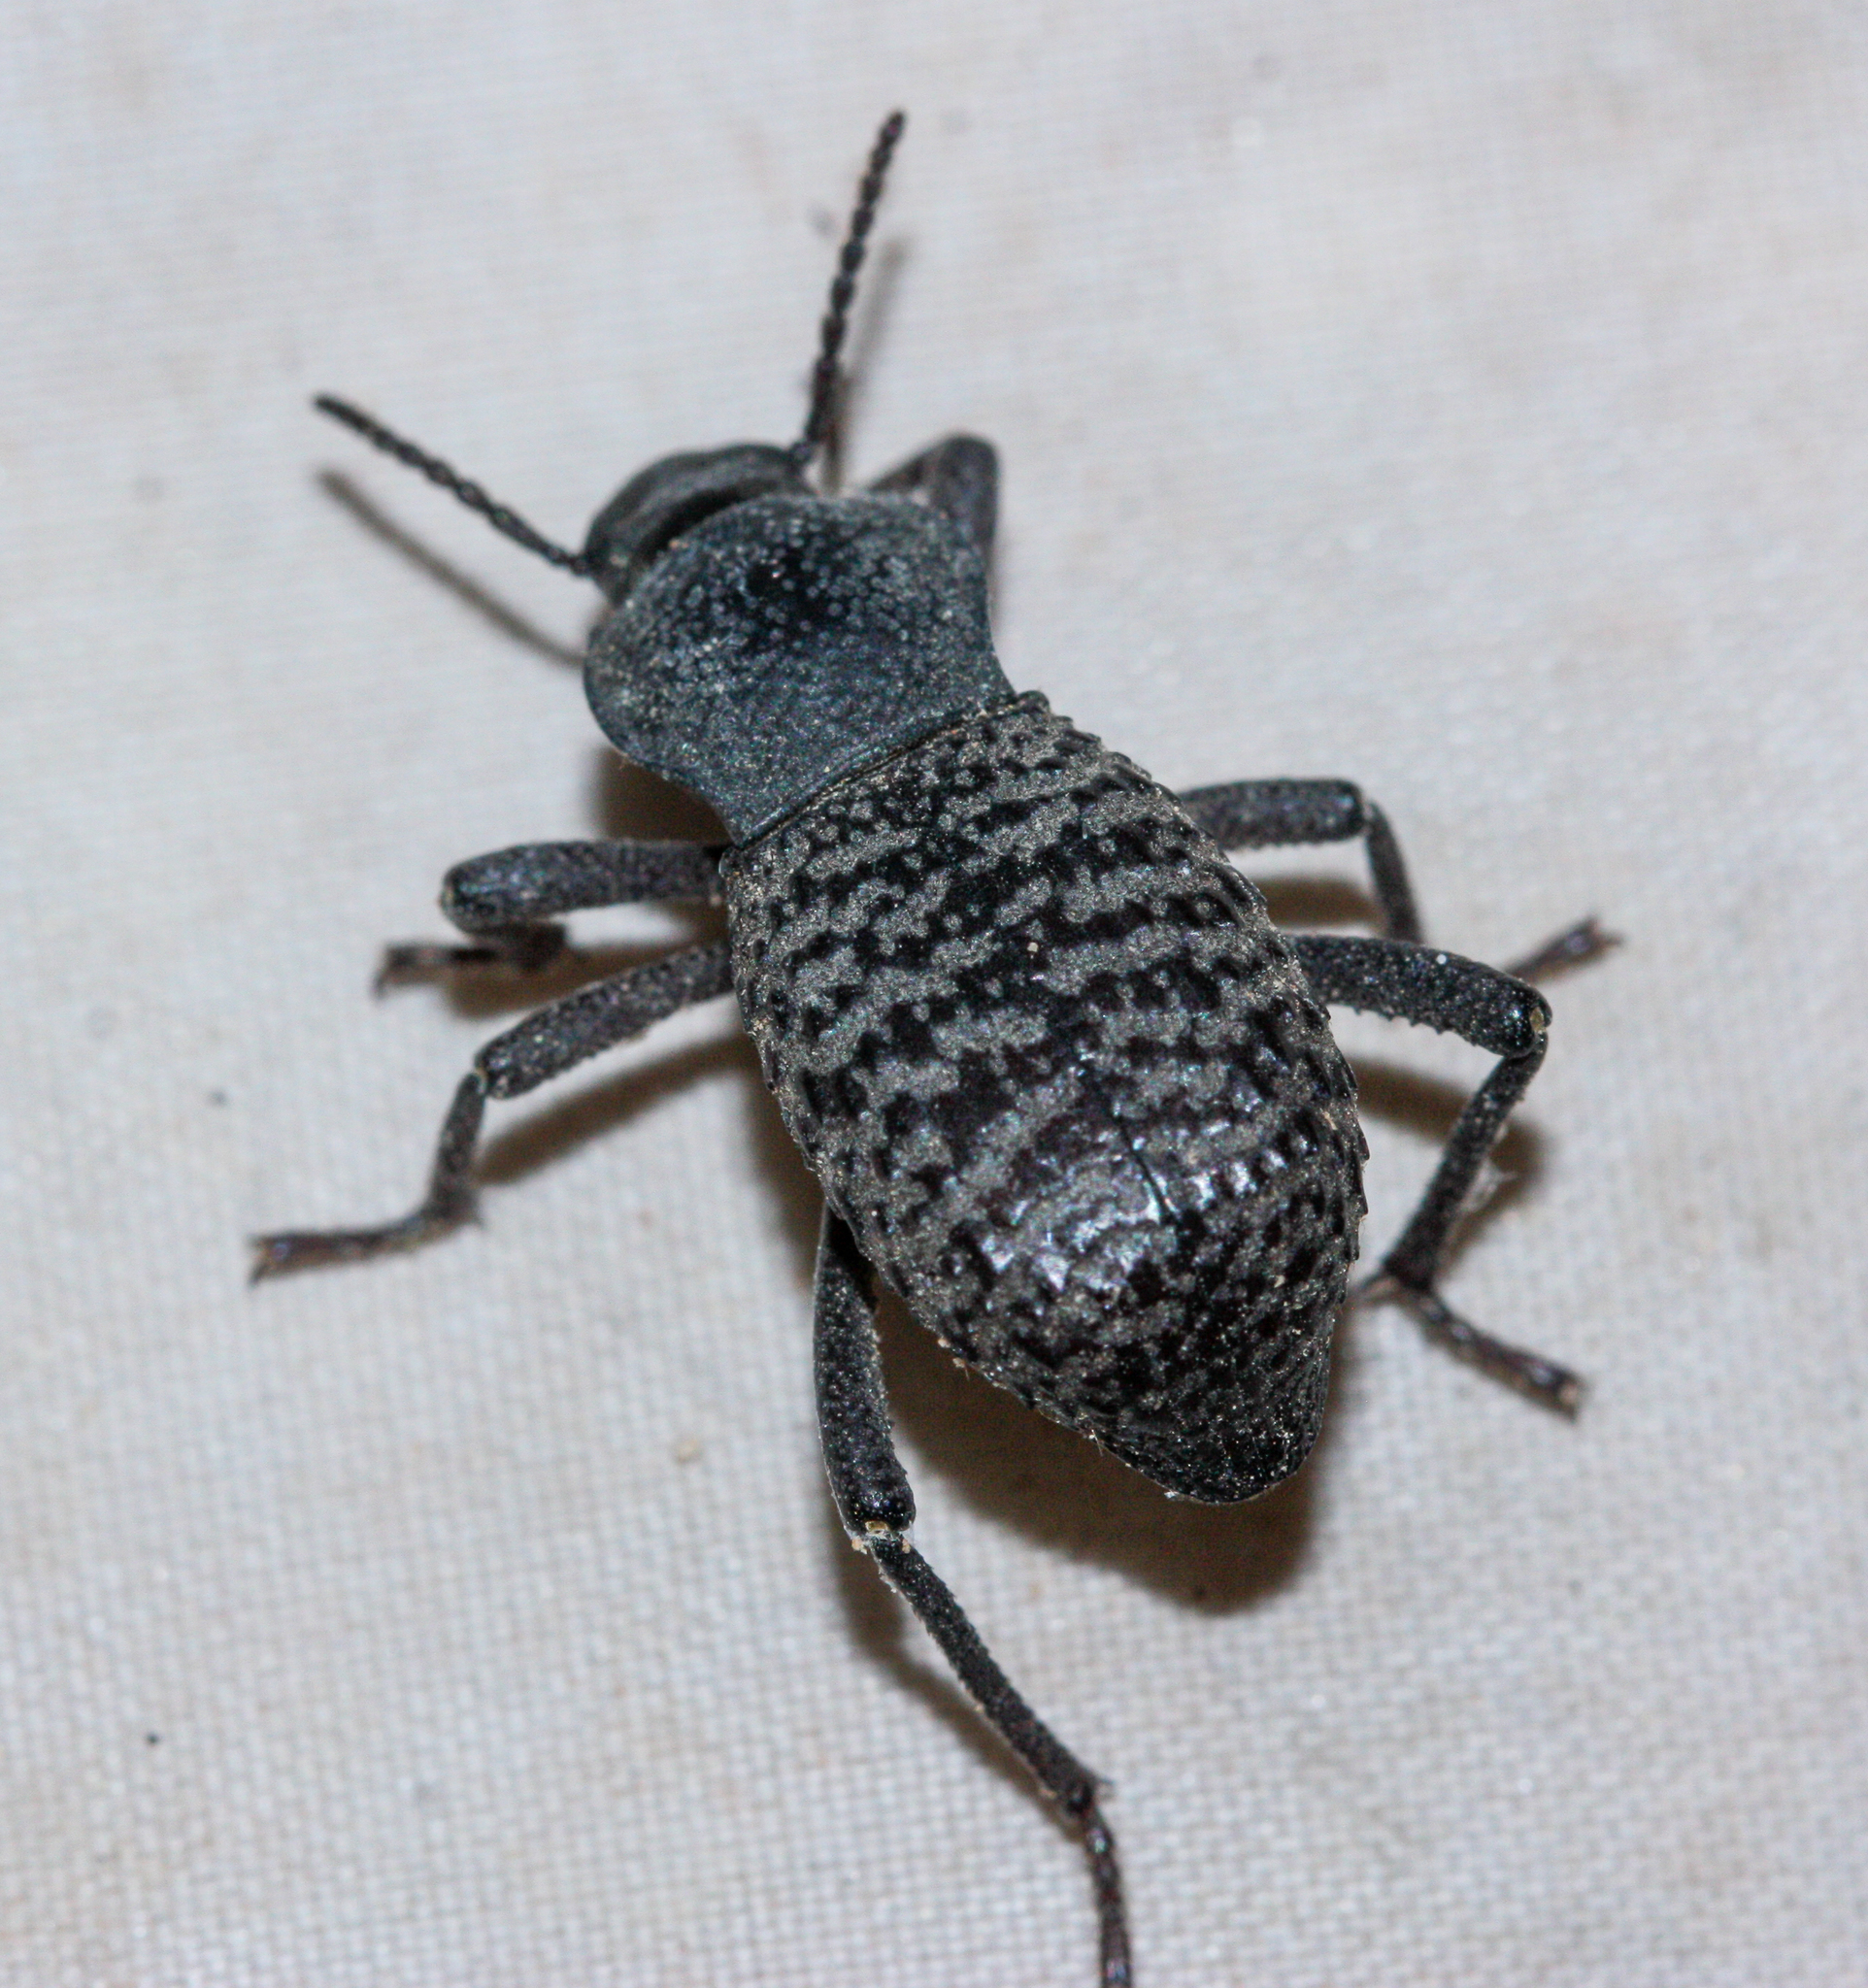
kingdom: Animalia
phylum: Arthropoda
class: Insecta
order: Coleoptera
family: Tenebrionidae
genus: Cryptoglossa
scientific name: Cryptoglossa variolosa
